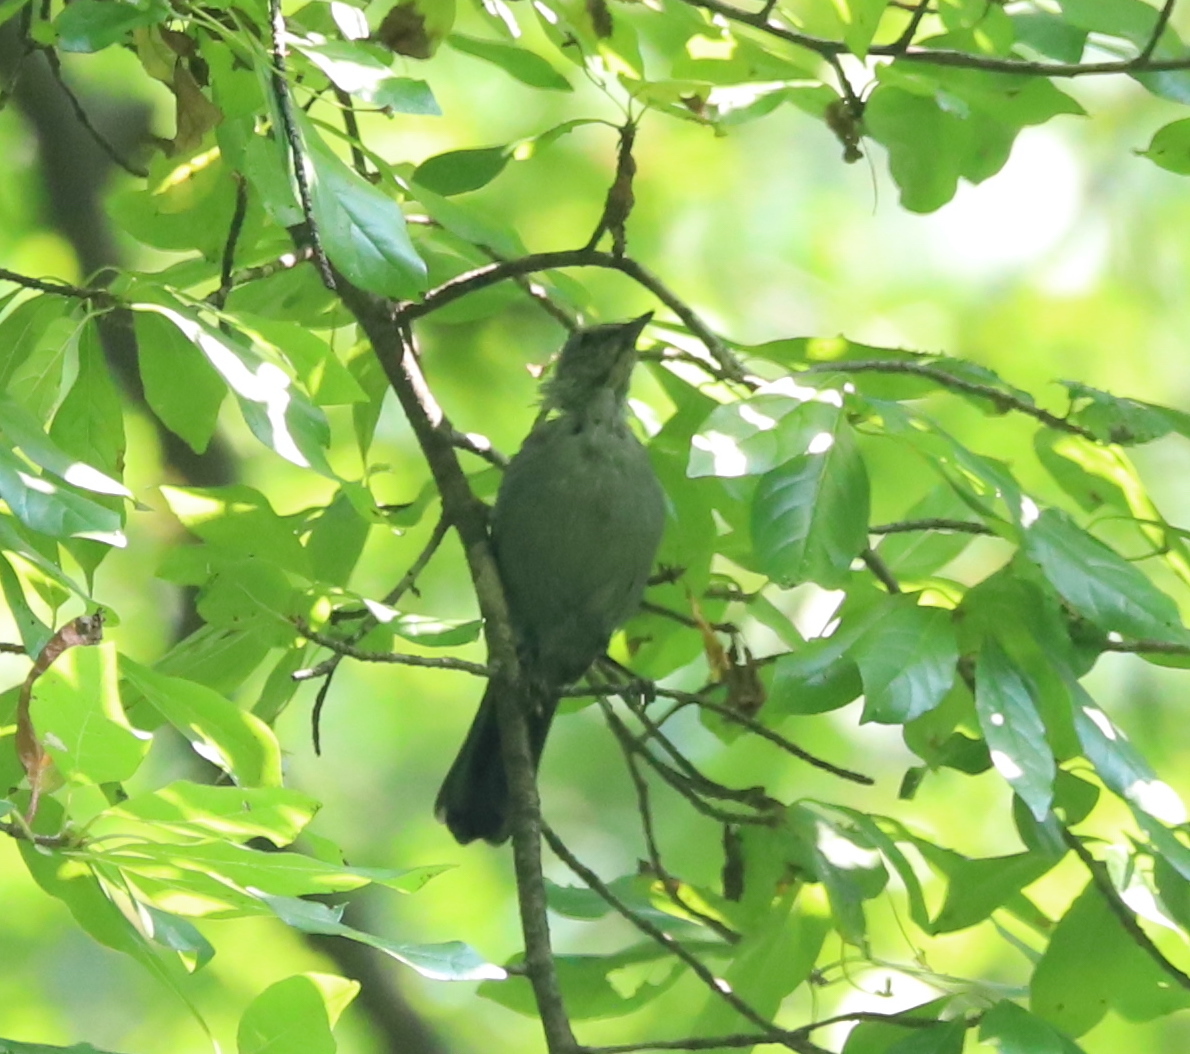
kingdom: Animalia
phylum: Chordata
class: Aves
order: Passeriformes
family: Mimidae
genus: Dumetella
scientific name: Dumetella carolinensis
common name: Gray catbird
